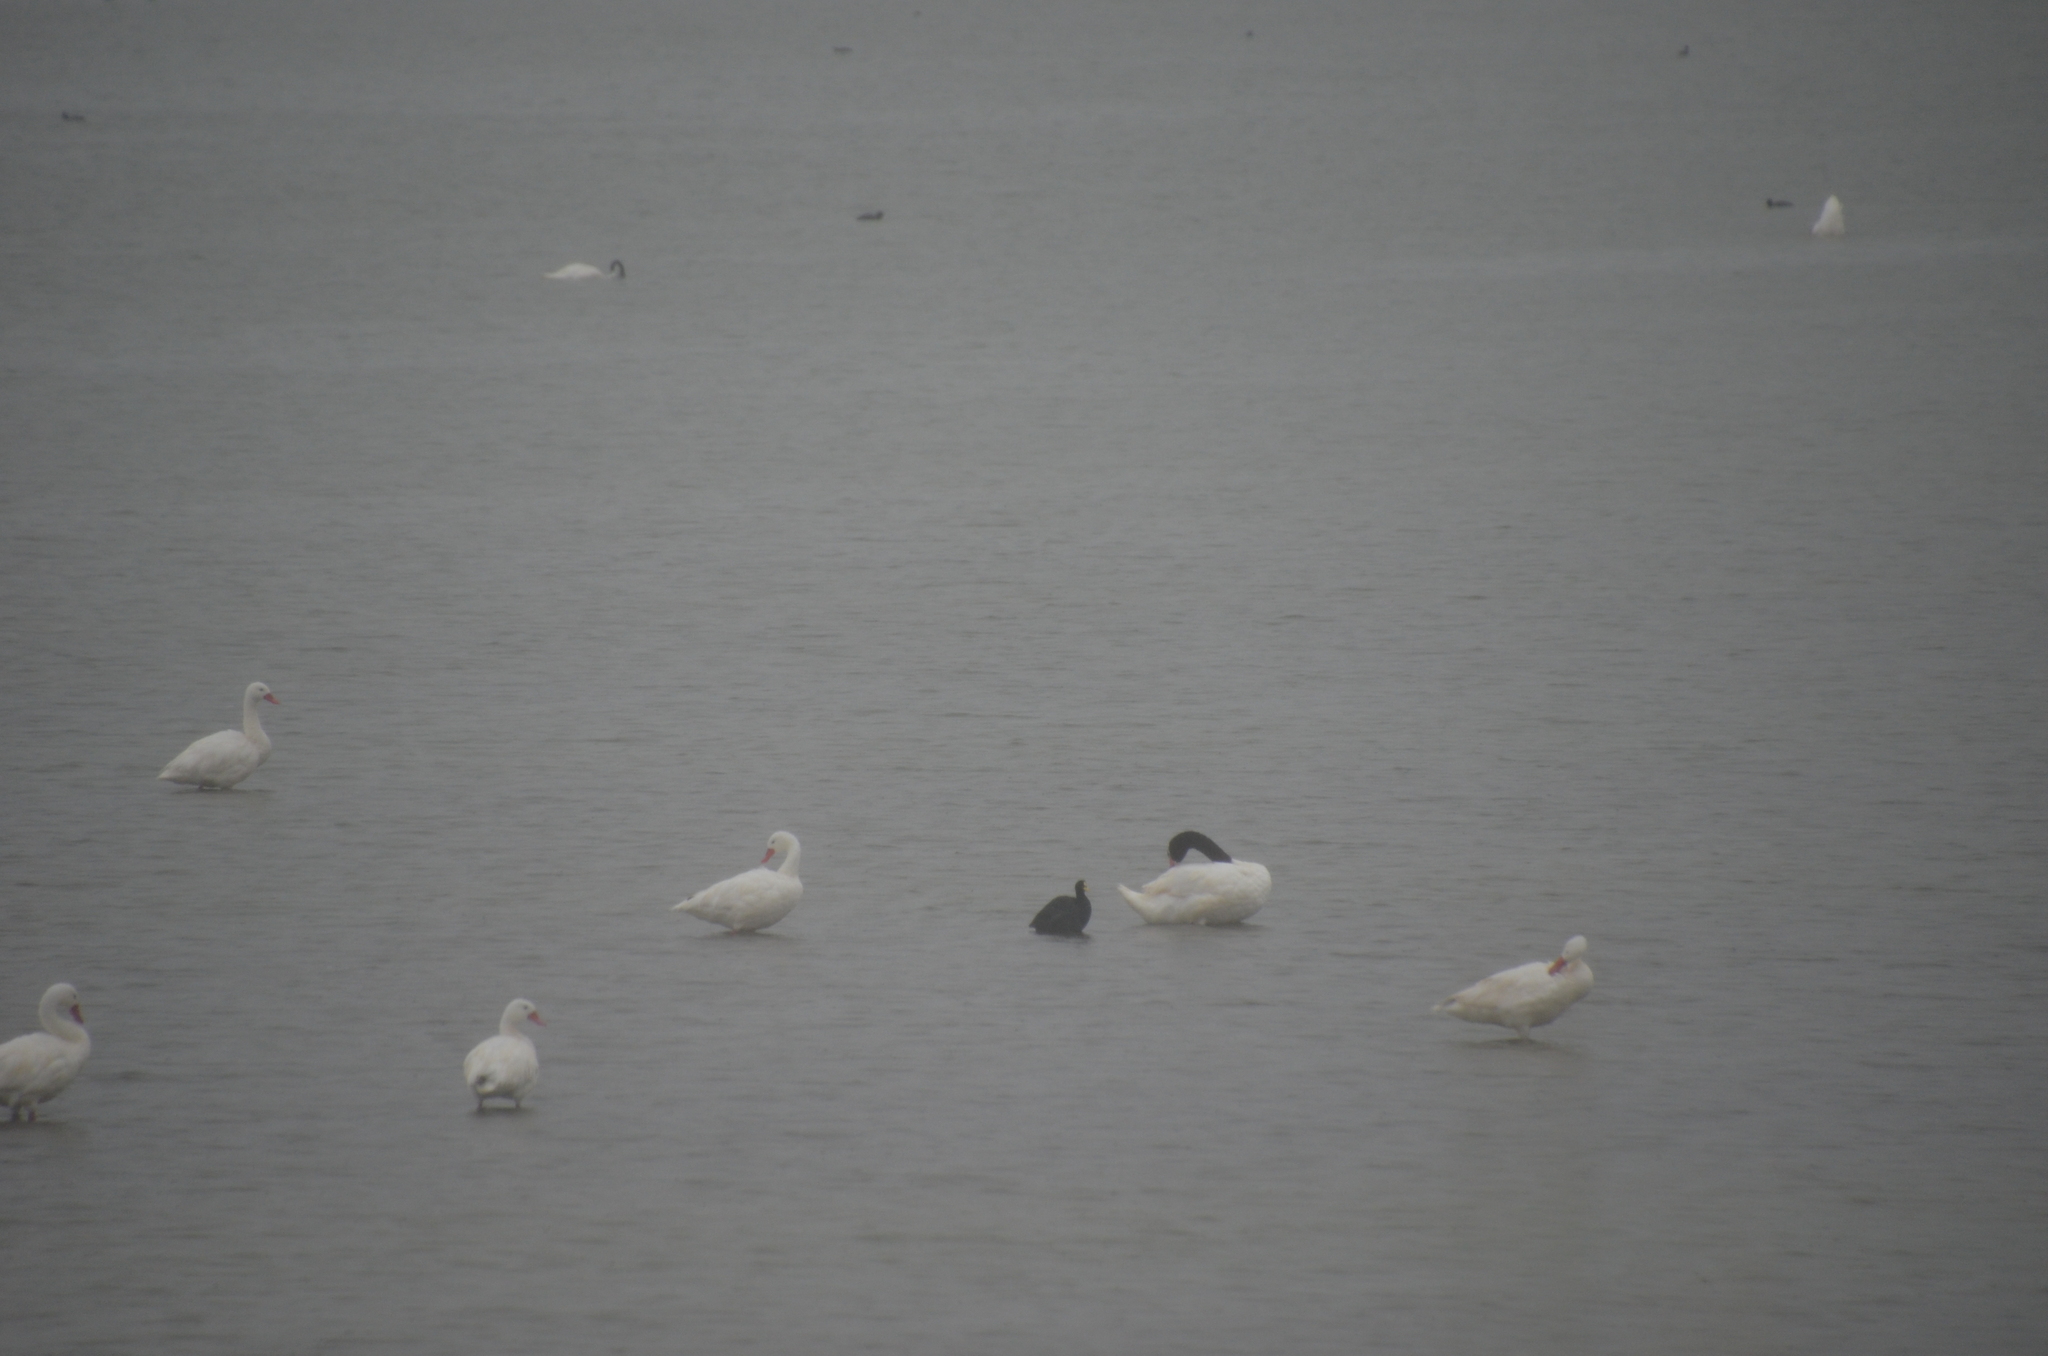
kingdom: Animalia
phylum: Chordata
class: Aves
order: Anseriformes
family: Anatidae
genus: Cygnus
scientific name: Cygnus melancoryphus
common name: Black-necked swan
